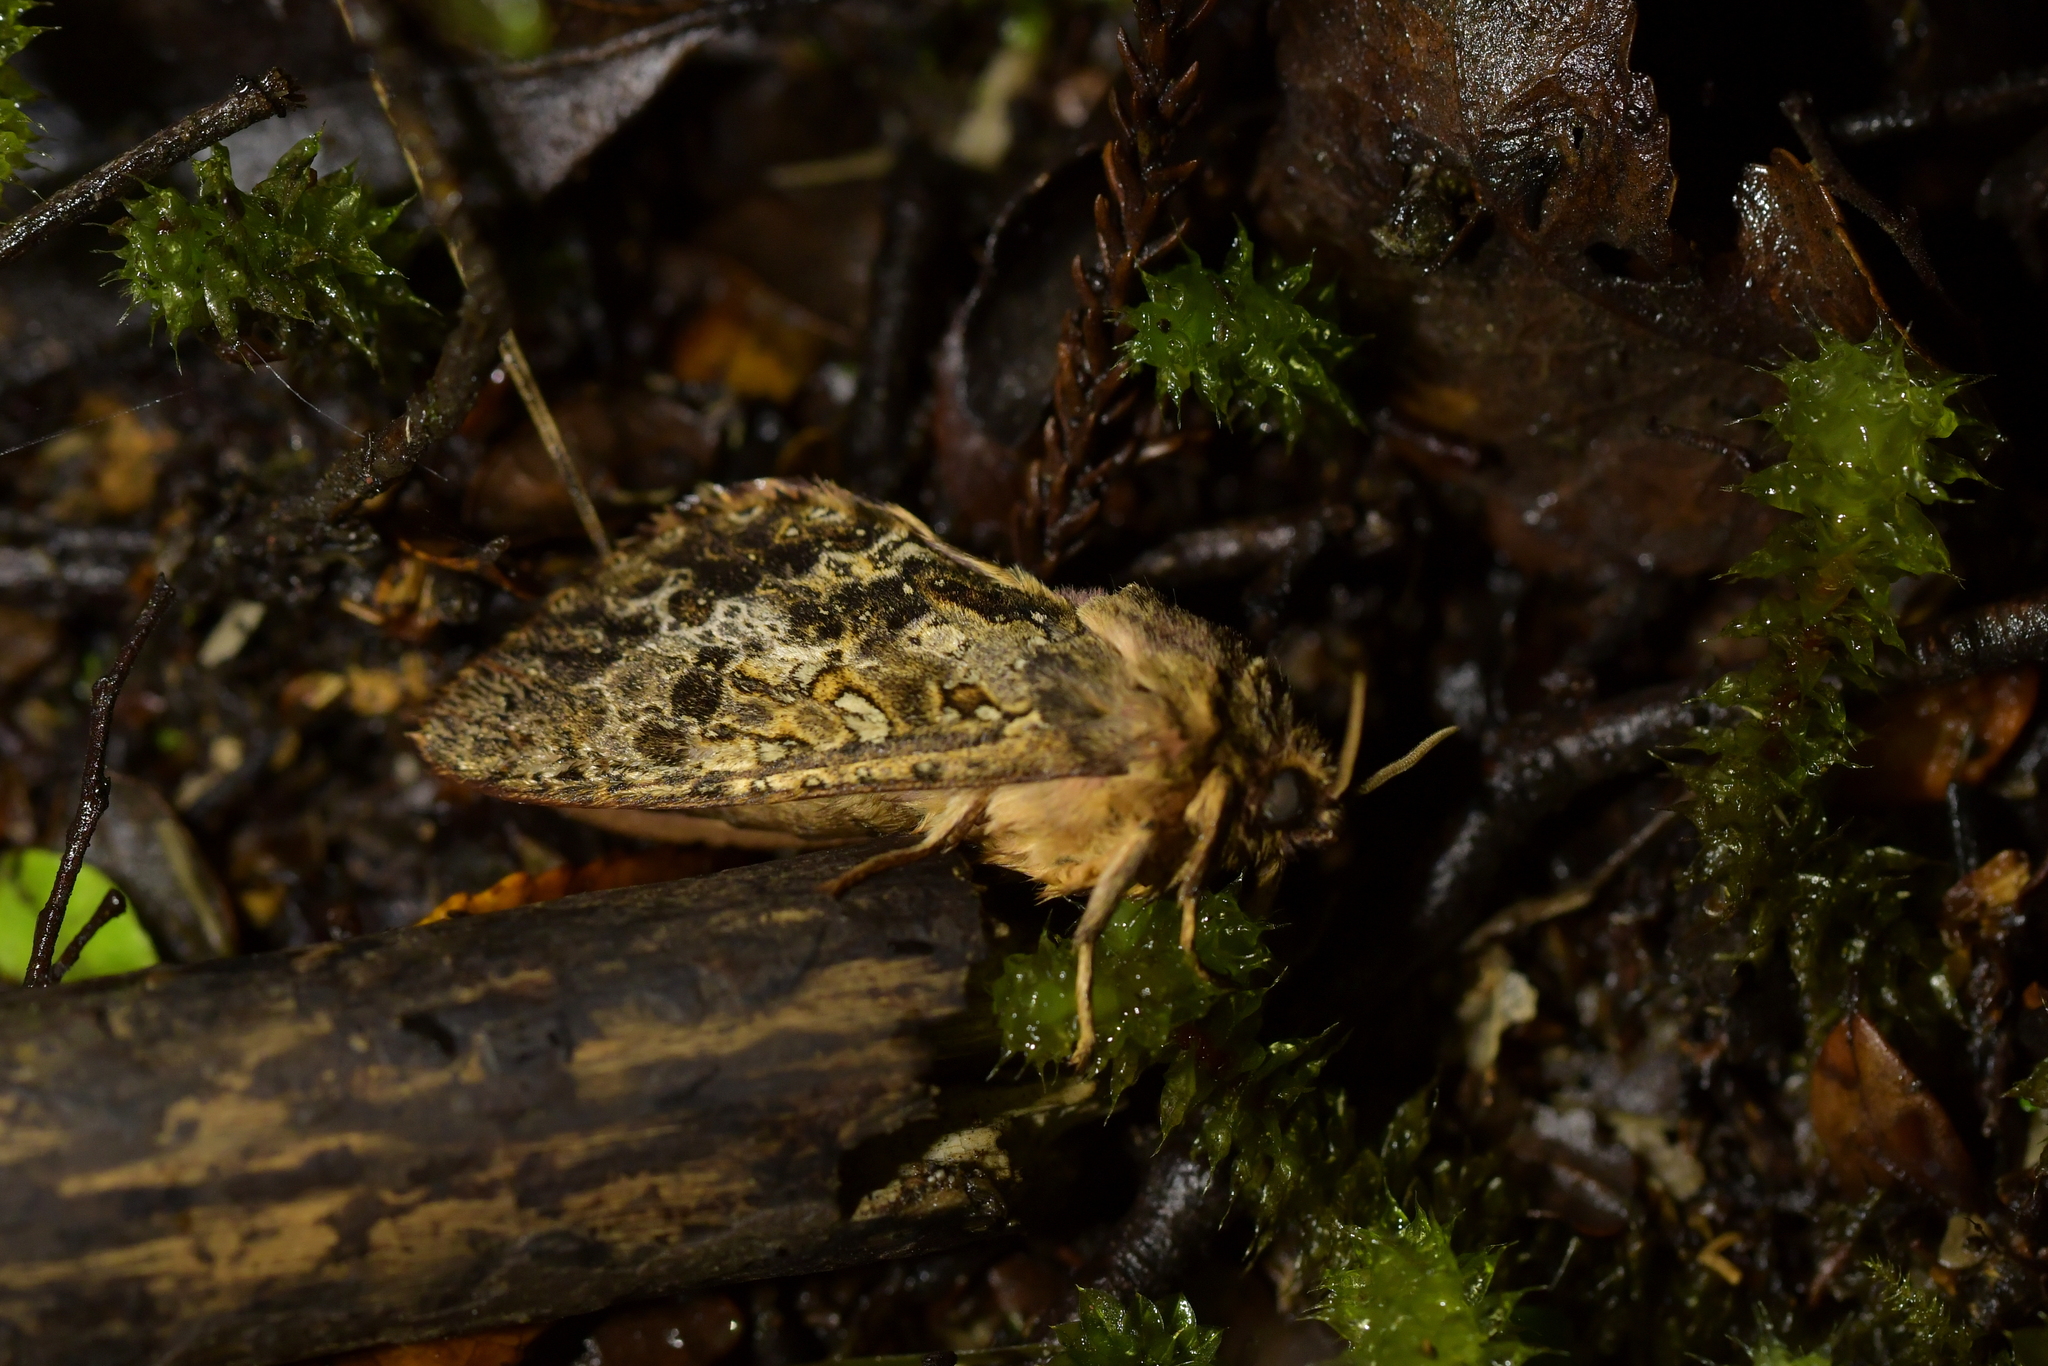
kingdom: Animalia
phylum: Arthropoda
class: Insecta
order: Lepidoptera
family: Hepialidae
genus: Dumbletonius
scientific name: Dumbletonius unimaculata
